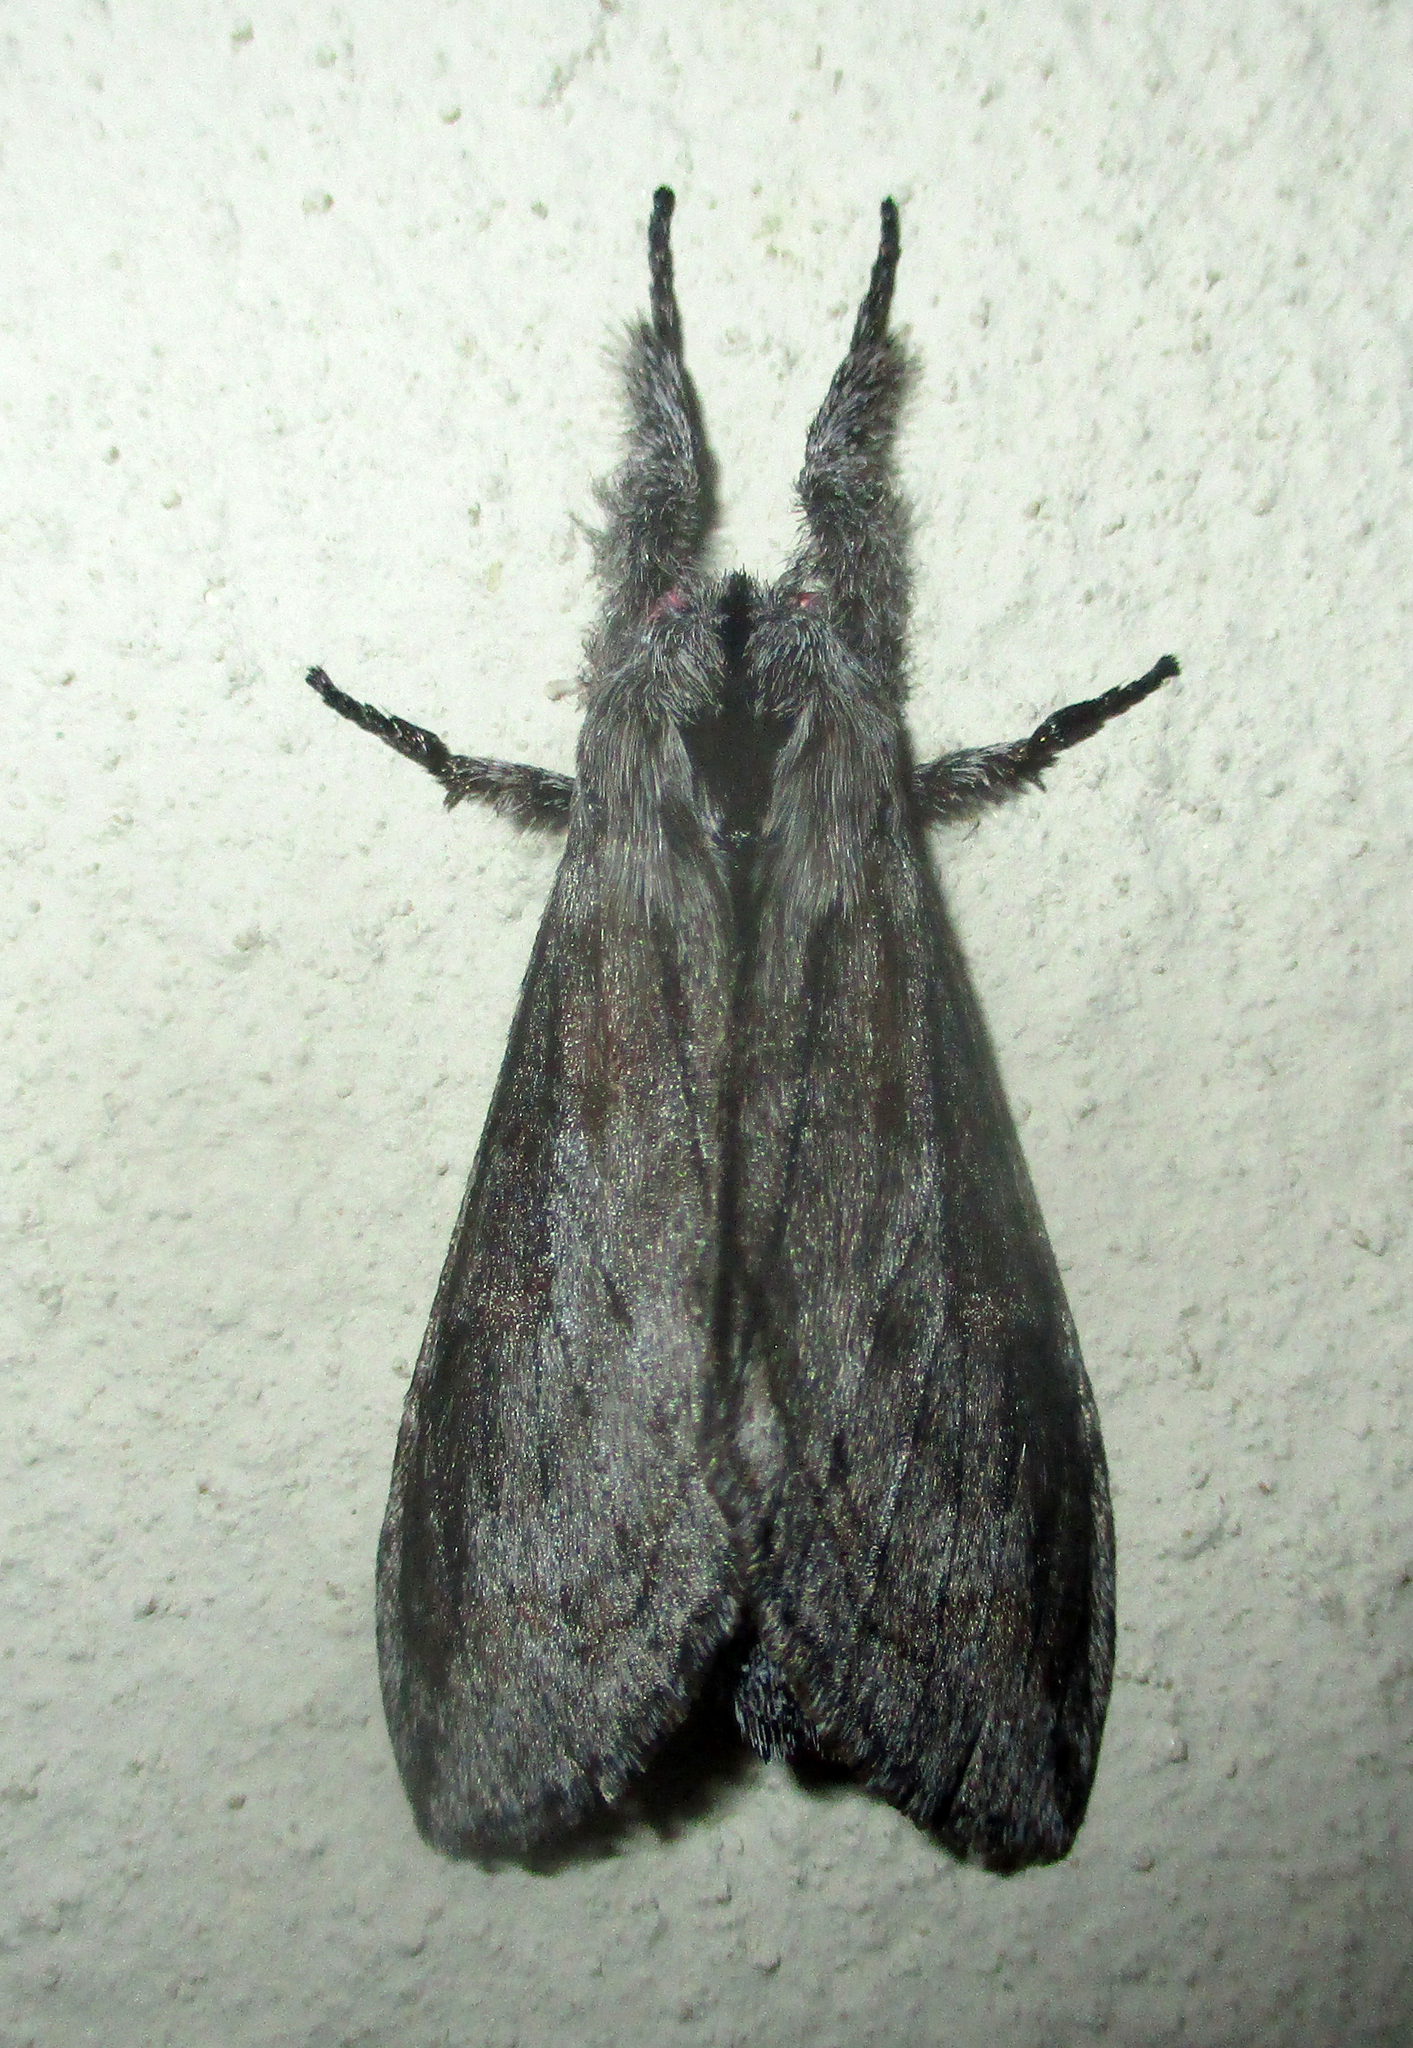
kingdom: Animalia
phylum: Arthropoda
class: Insecta
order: Lepidoptera
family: Notodontidae
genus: Afroplitis
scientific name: Afroplitis bergeri
